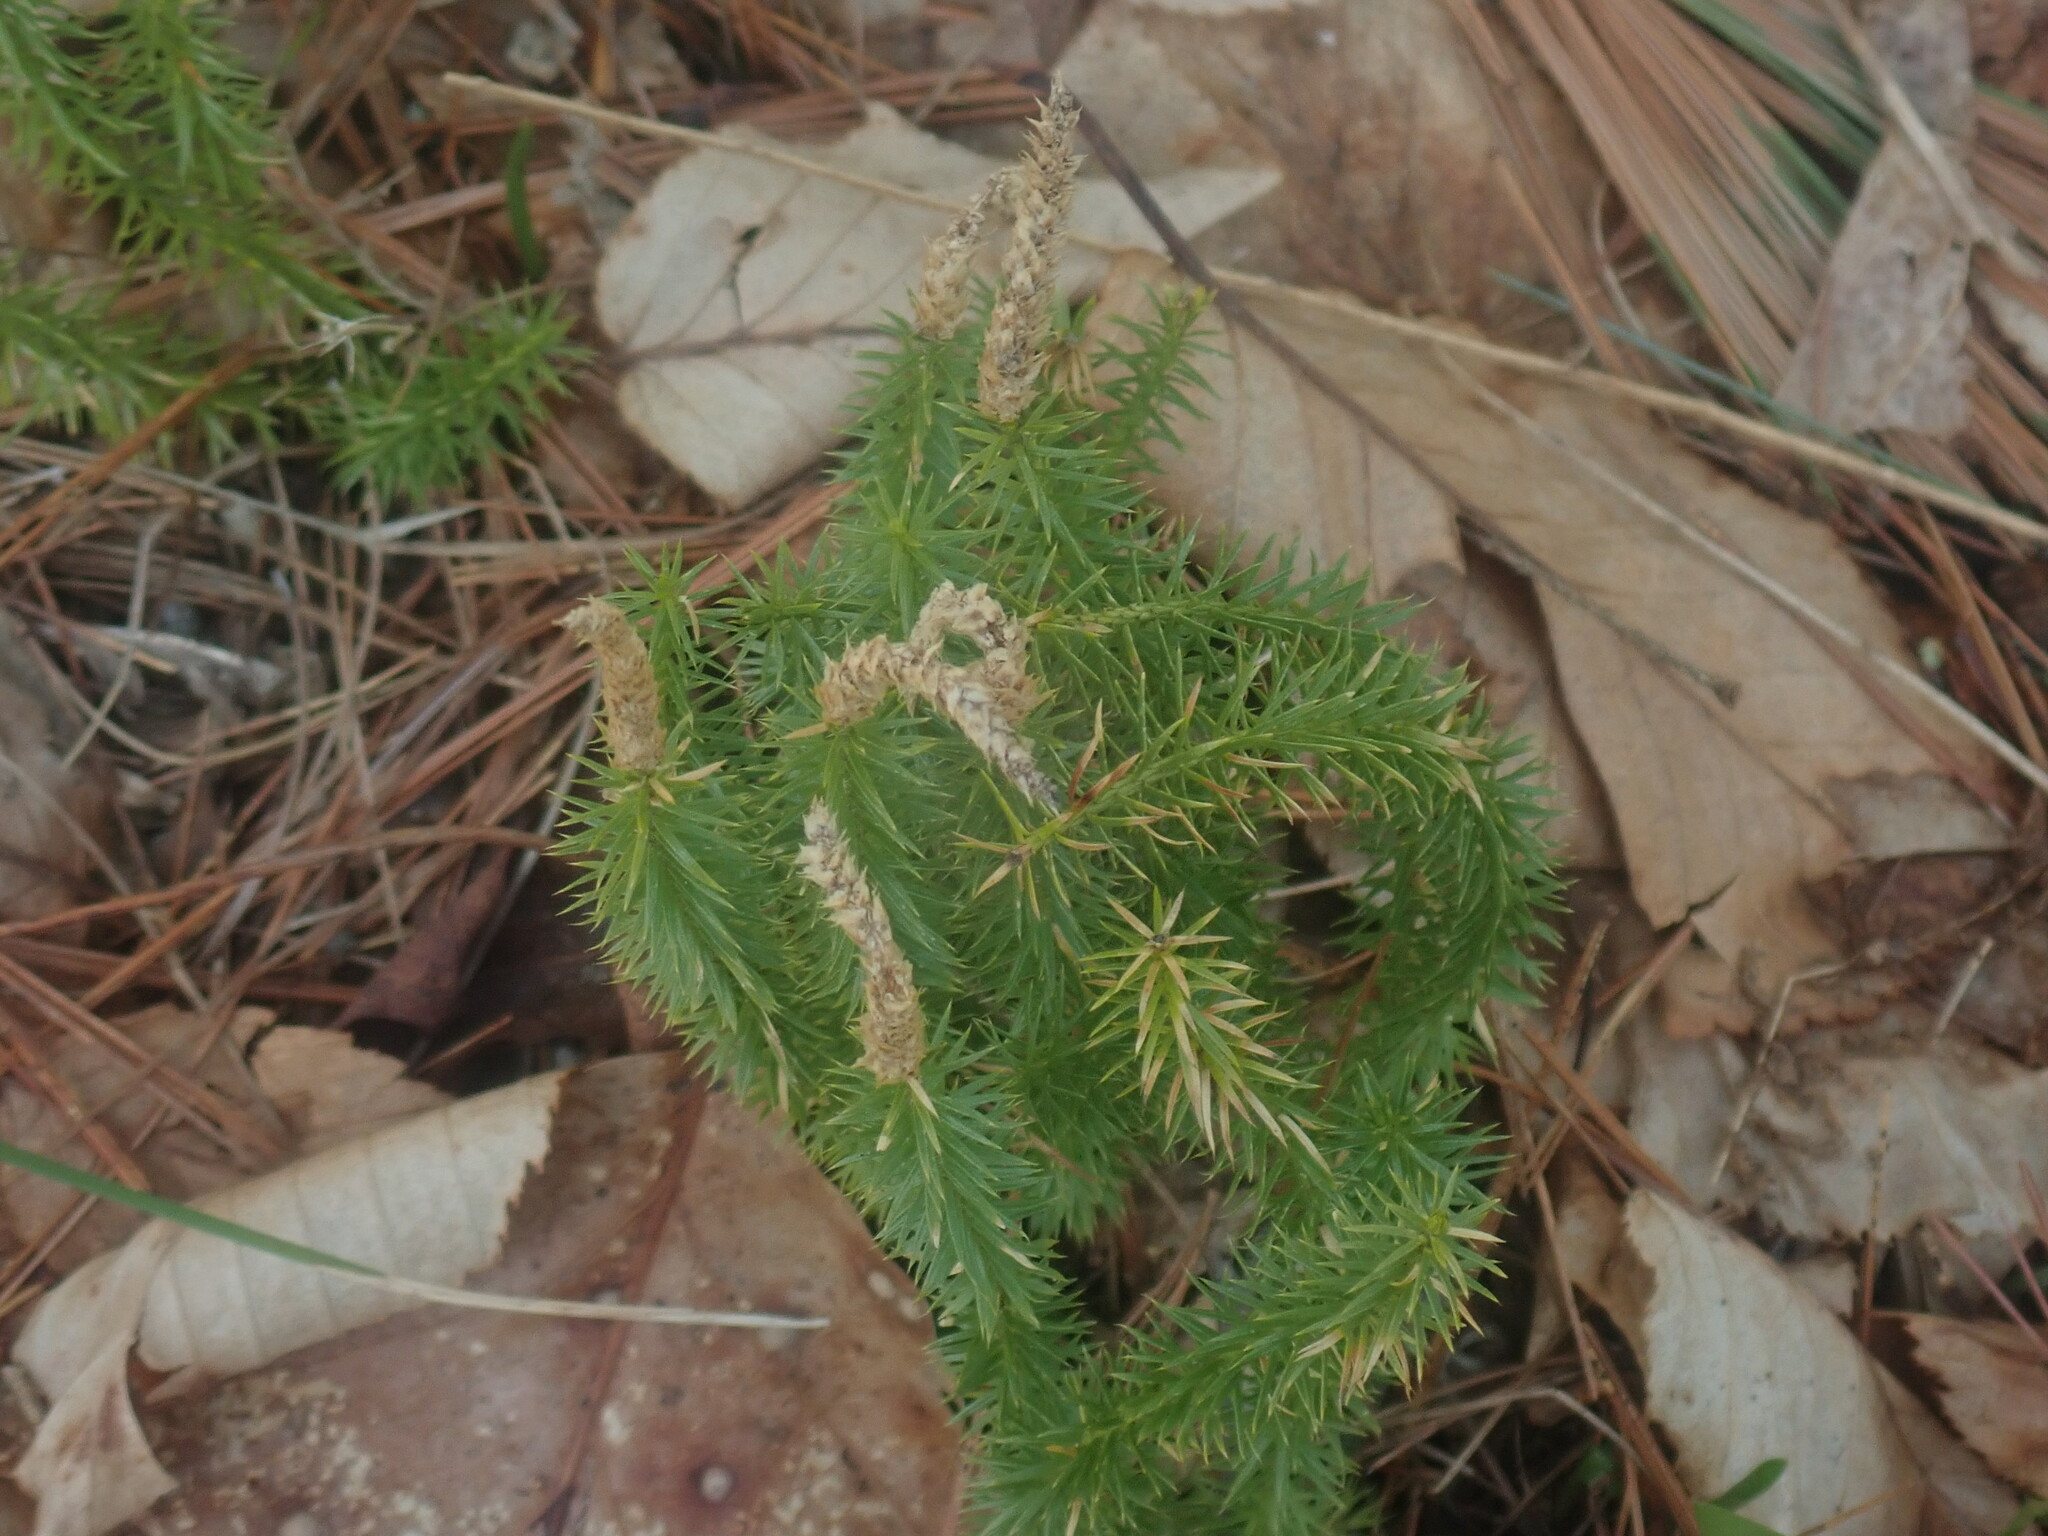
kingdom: Plantae
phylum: Tracheophyta
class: Lycopodiopsida
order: Lycopodiales
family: Lycopodiaceae
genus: Spinulum
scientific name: Spinulum annotinum
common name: Interrupted club-moss
